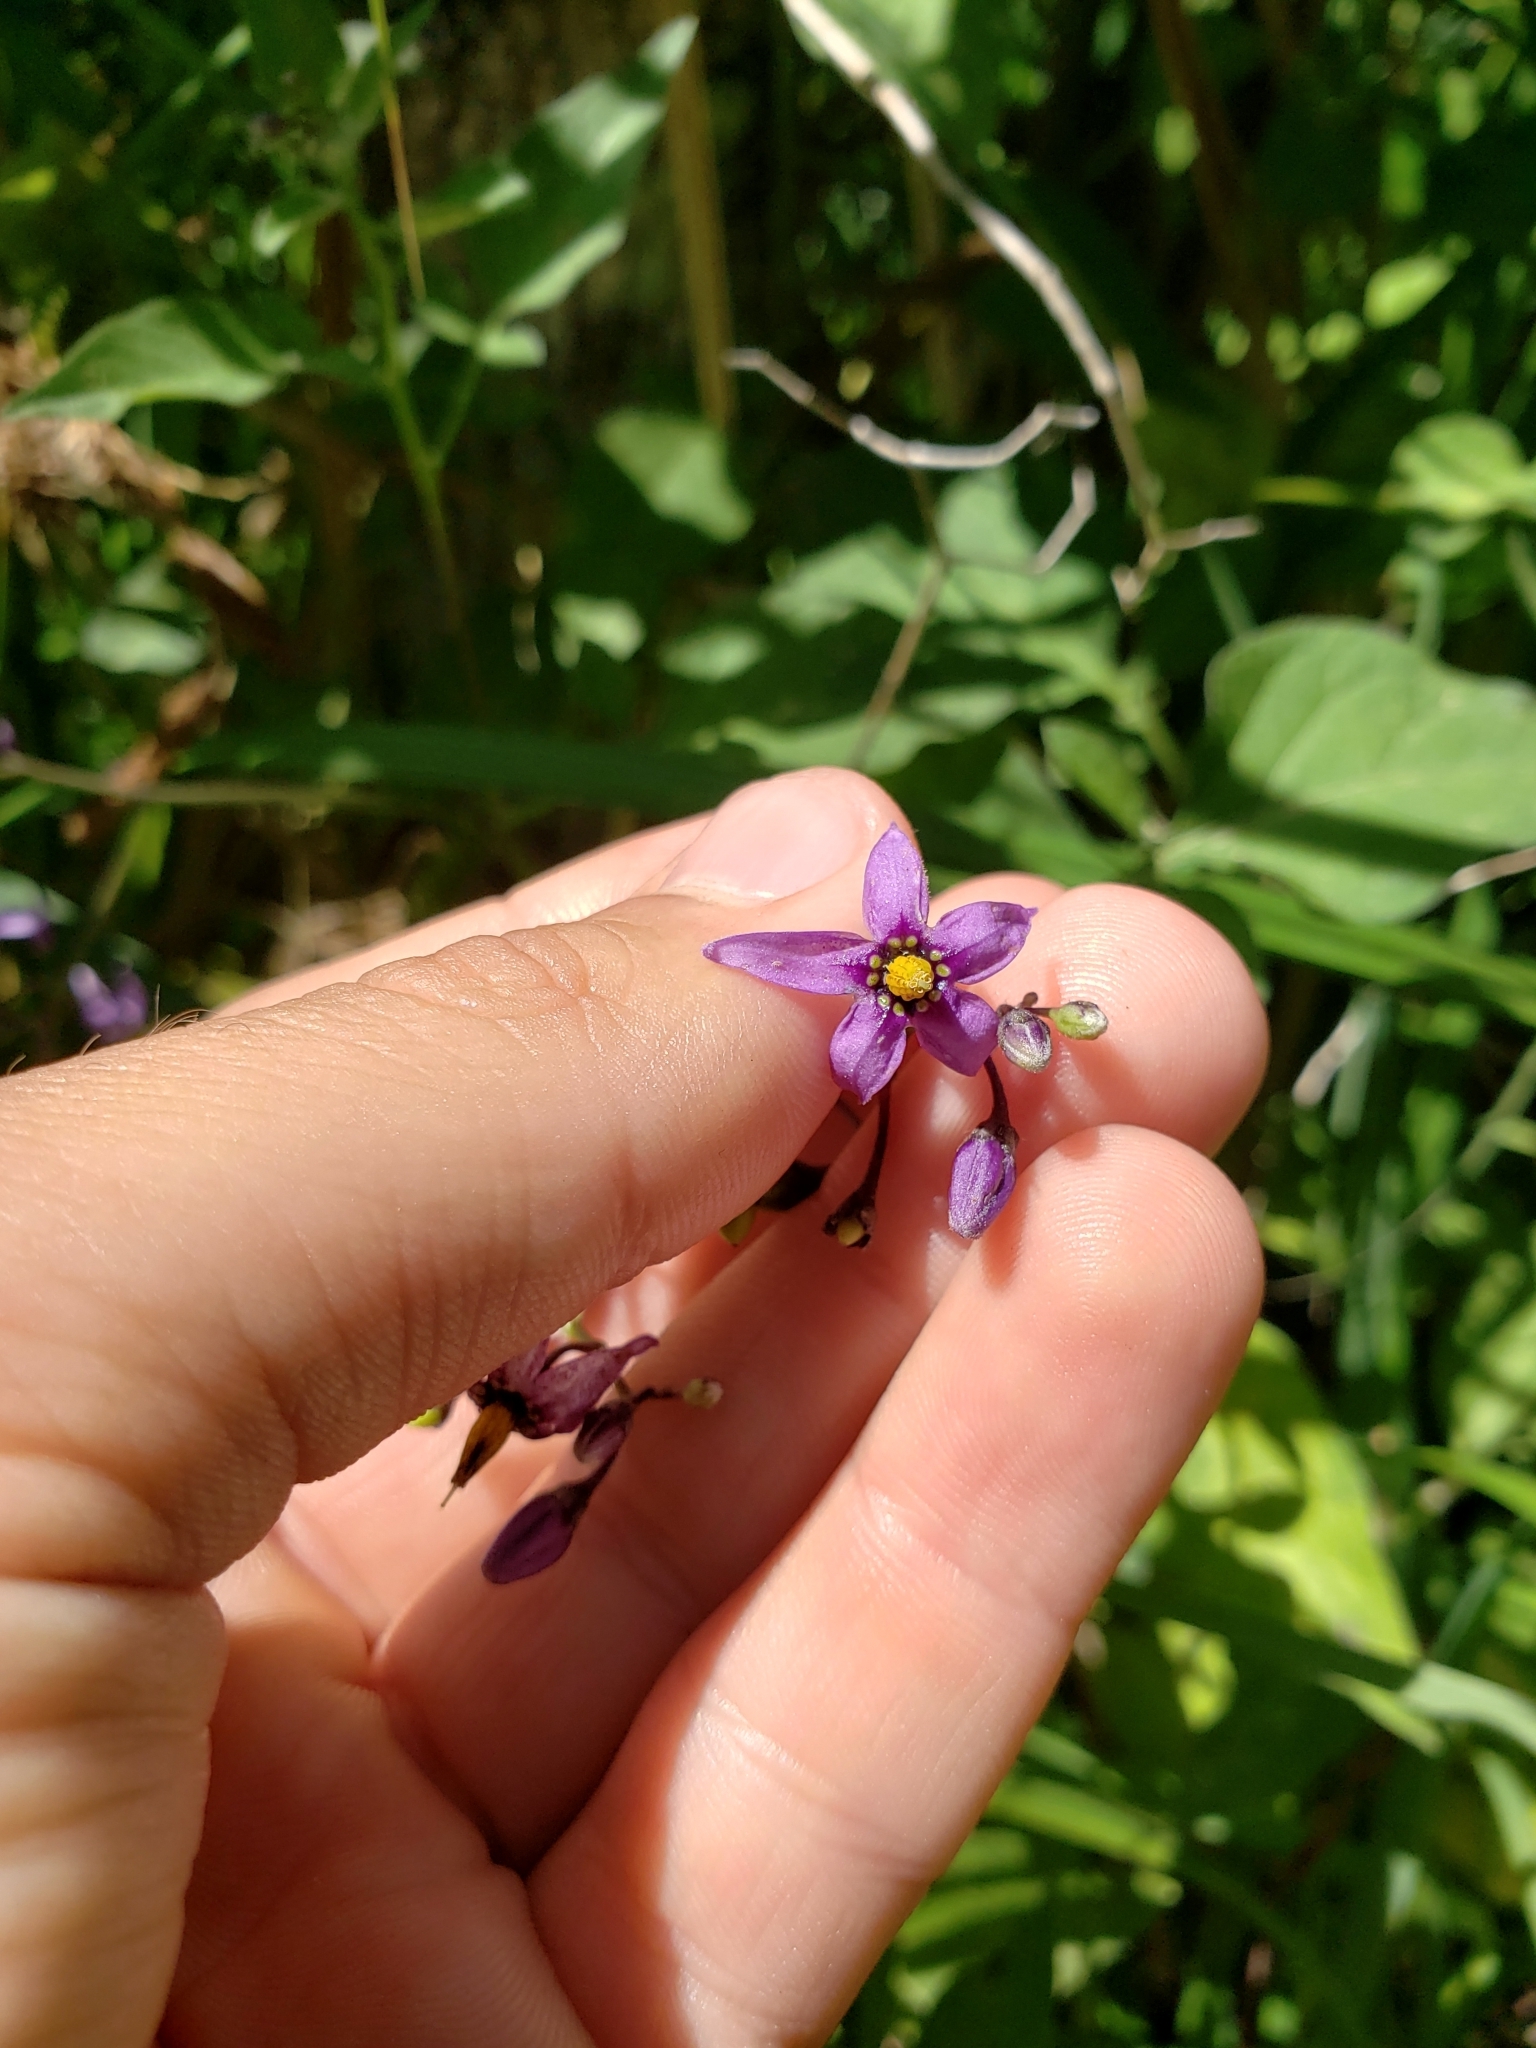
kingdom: Plantae
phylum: Tracheophyta
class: Magnoliopsida
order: Solanales
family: Solanaceae
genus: Solanum
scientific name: Solanum dulcamara
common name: Climbing nightshade
